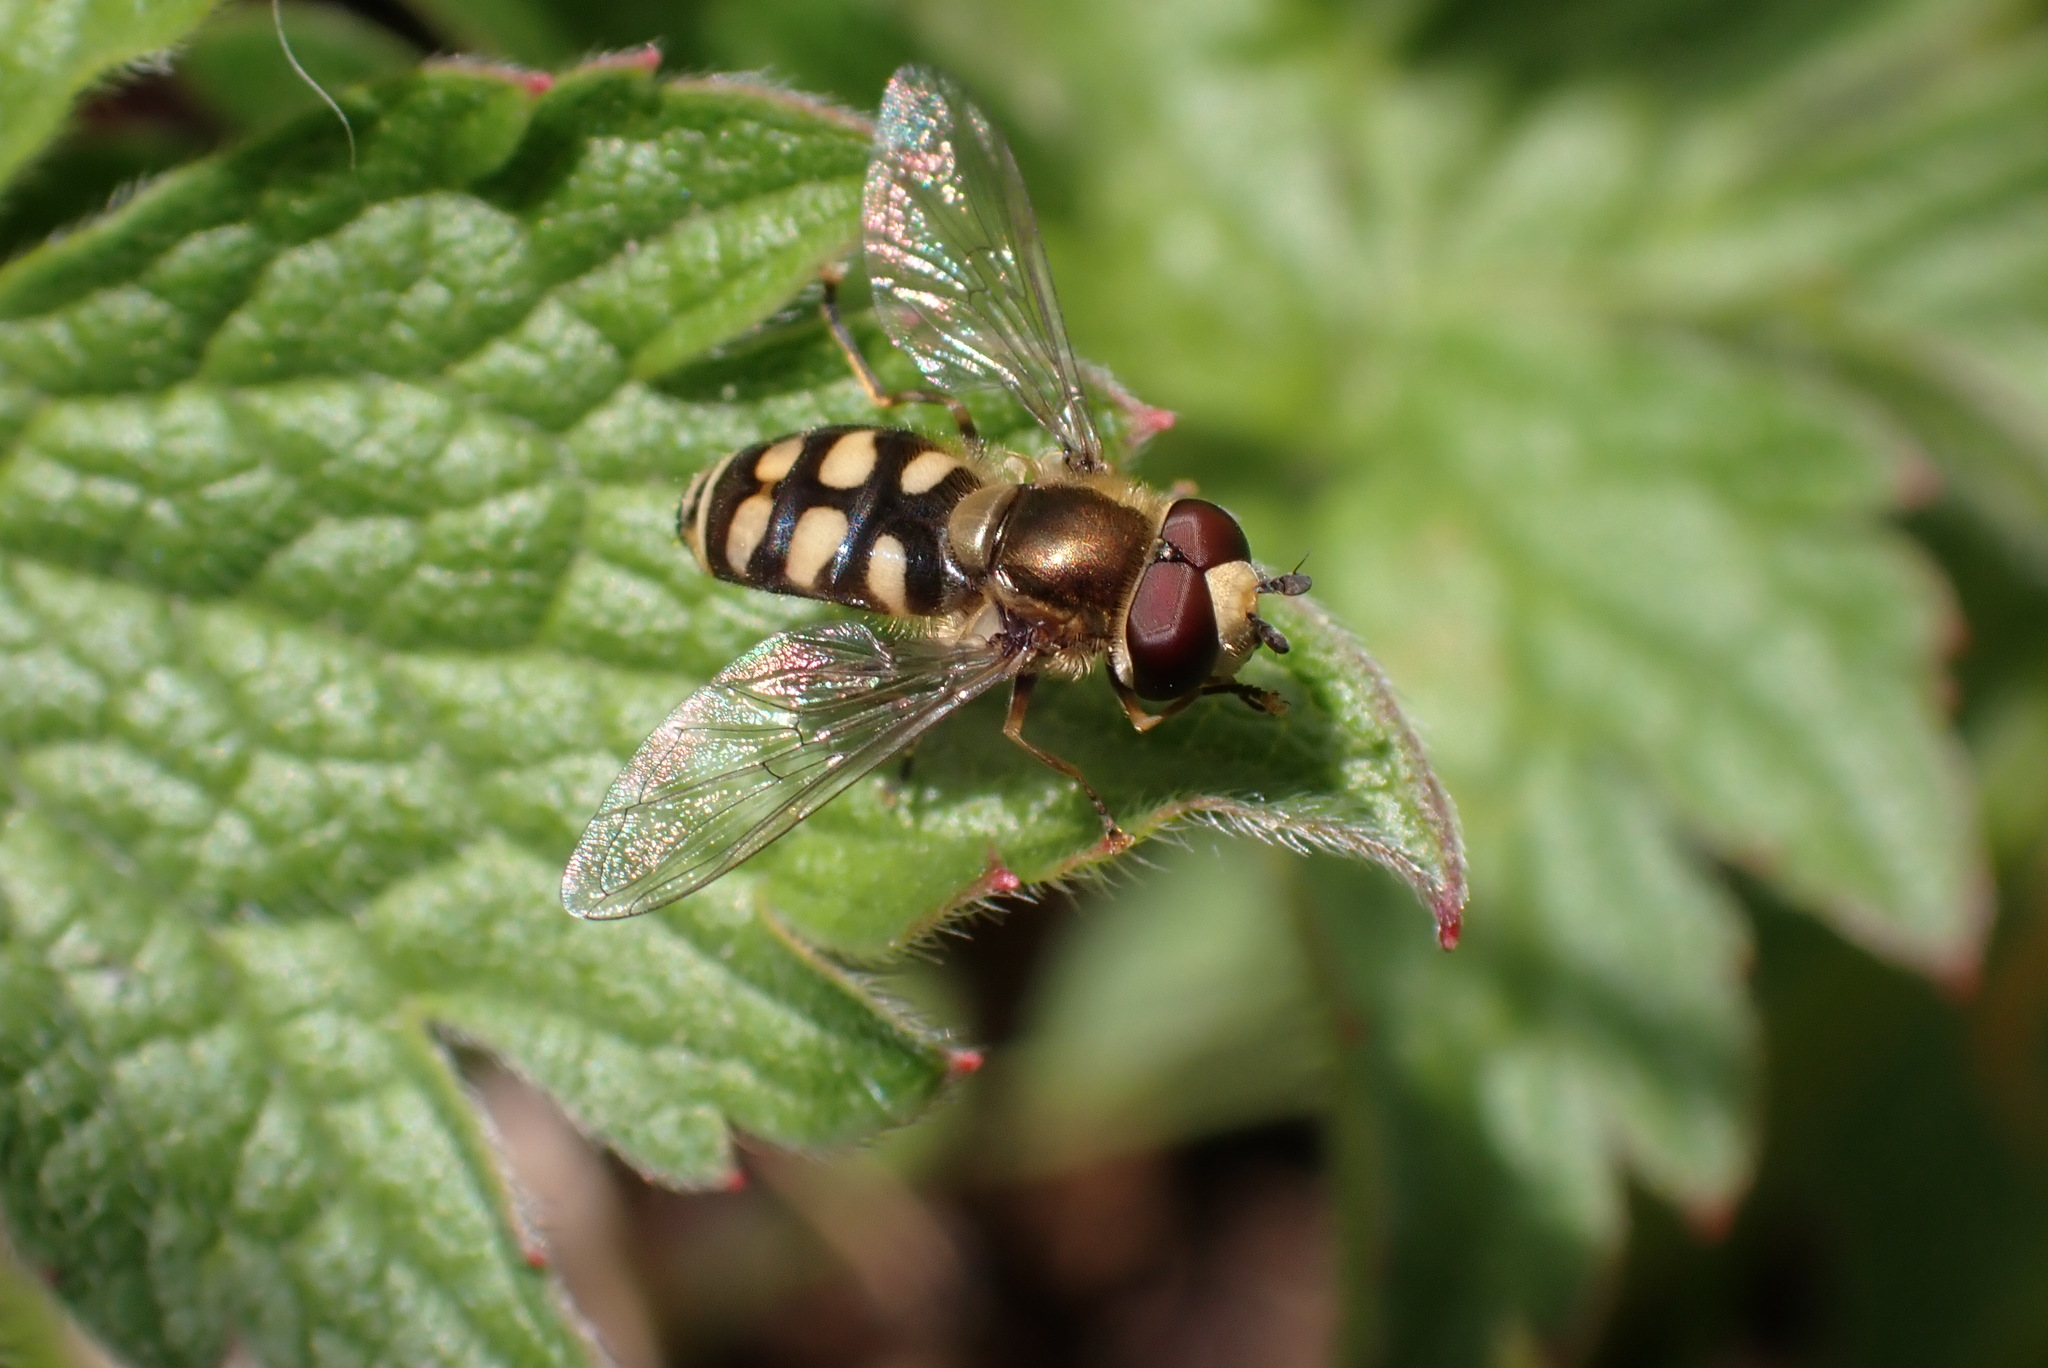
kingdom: Animalia
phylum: Arthropoda
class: Insecta
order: Diptera
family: Syrphidae
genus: Eupeodes
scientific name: Eupeodes corollae
